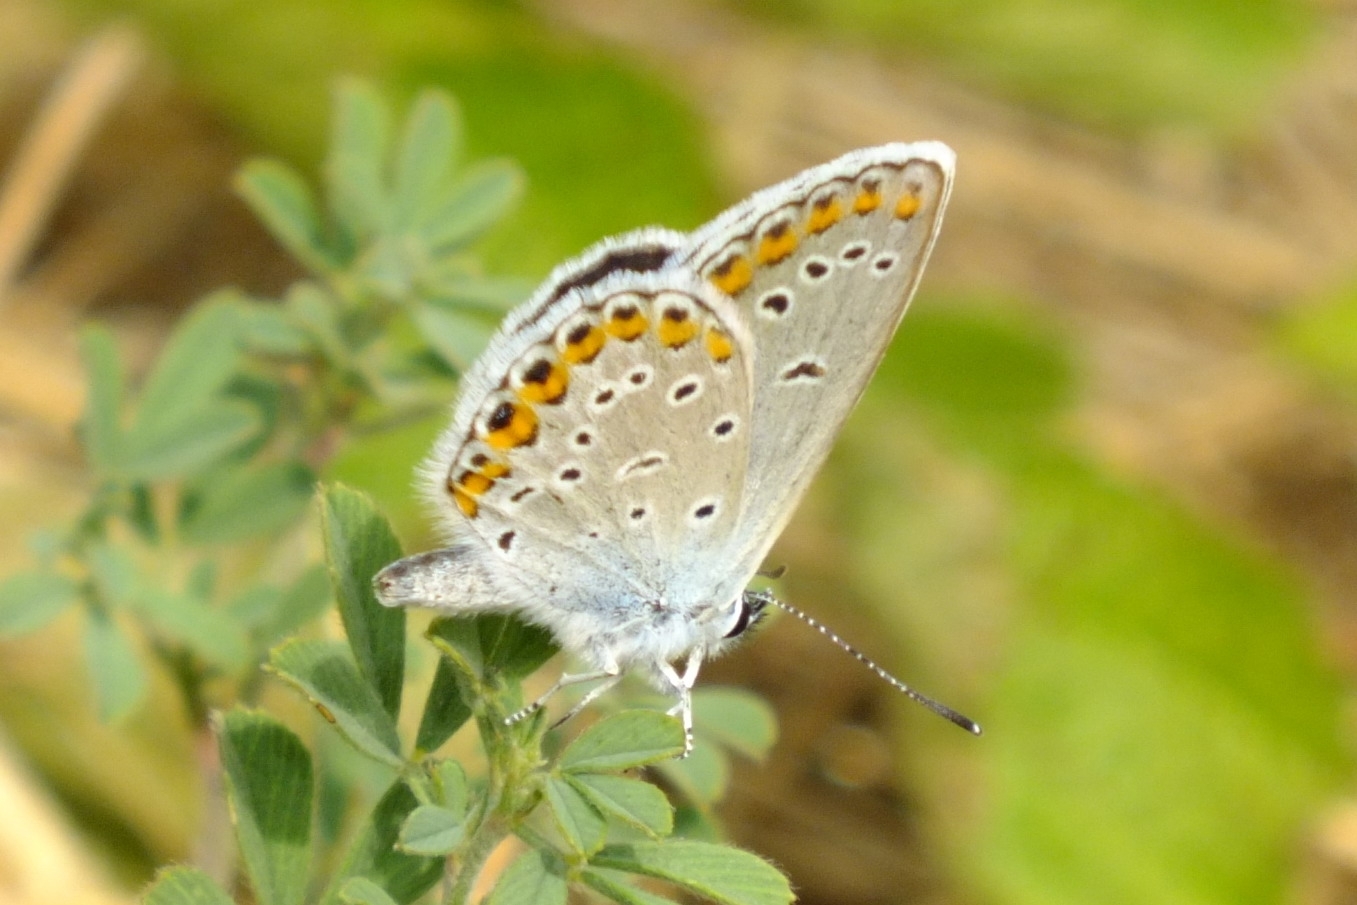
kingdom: Animalia
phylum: Arthropoda
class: Insecta
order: Lepidoptera
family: Lycaenidae
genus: Plebejus
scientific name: Plebejus argyrognomon
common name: Reverdin's blue
